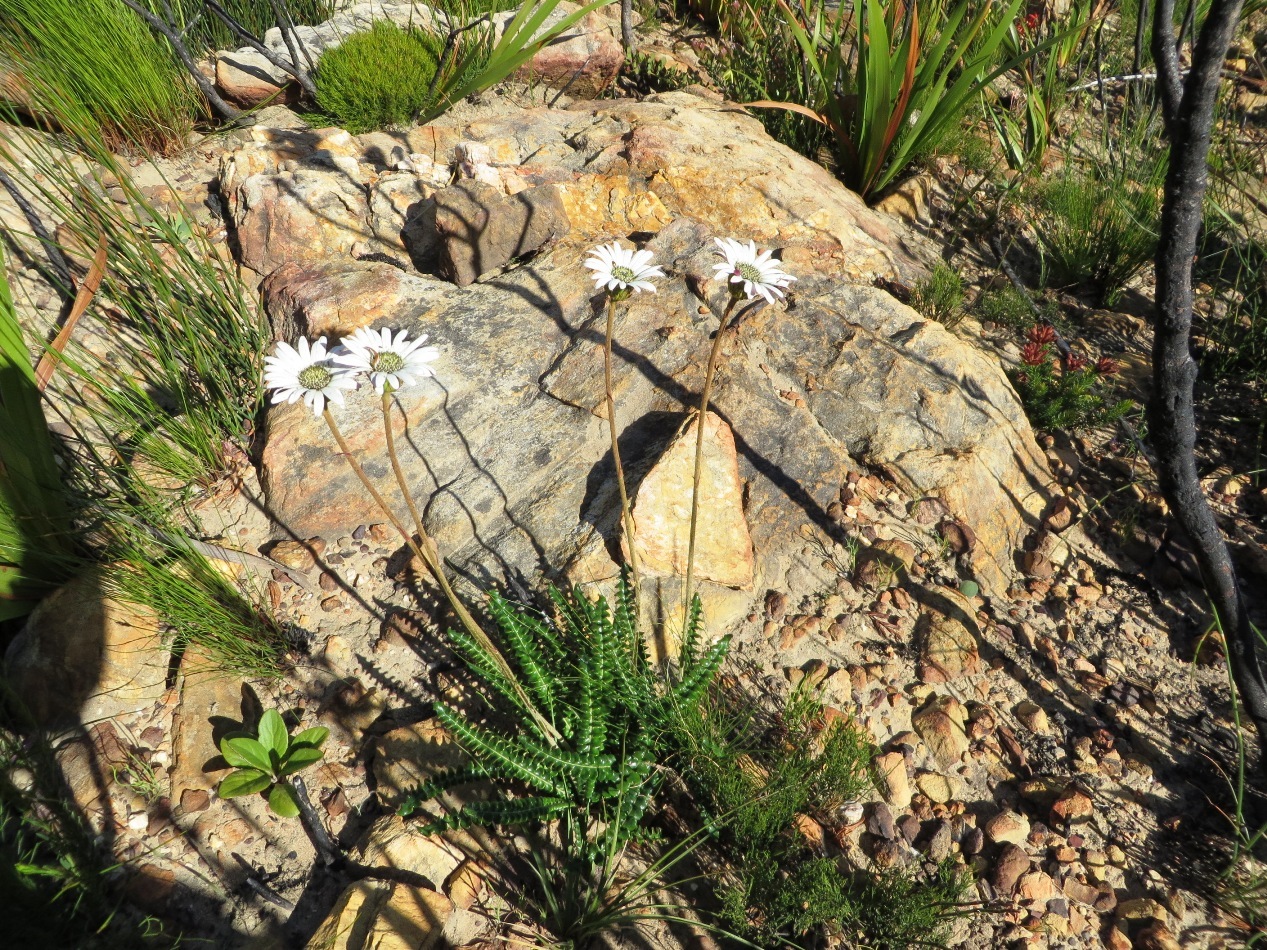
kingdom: Plantae
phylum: Tracheophyta
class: Magnoliopsida
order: Asterales
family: Asteraceae
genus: Gerbera
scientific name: Gerbera linnaei
